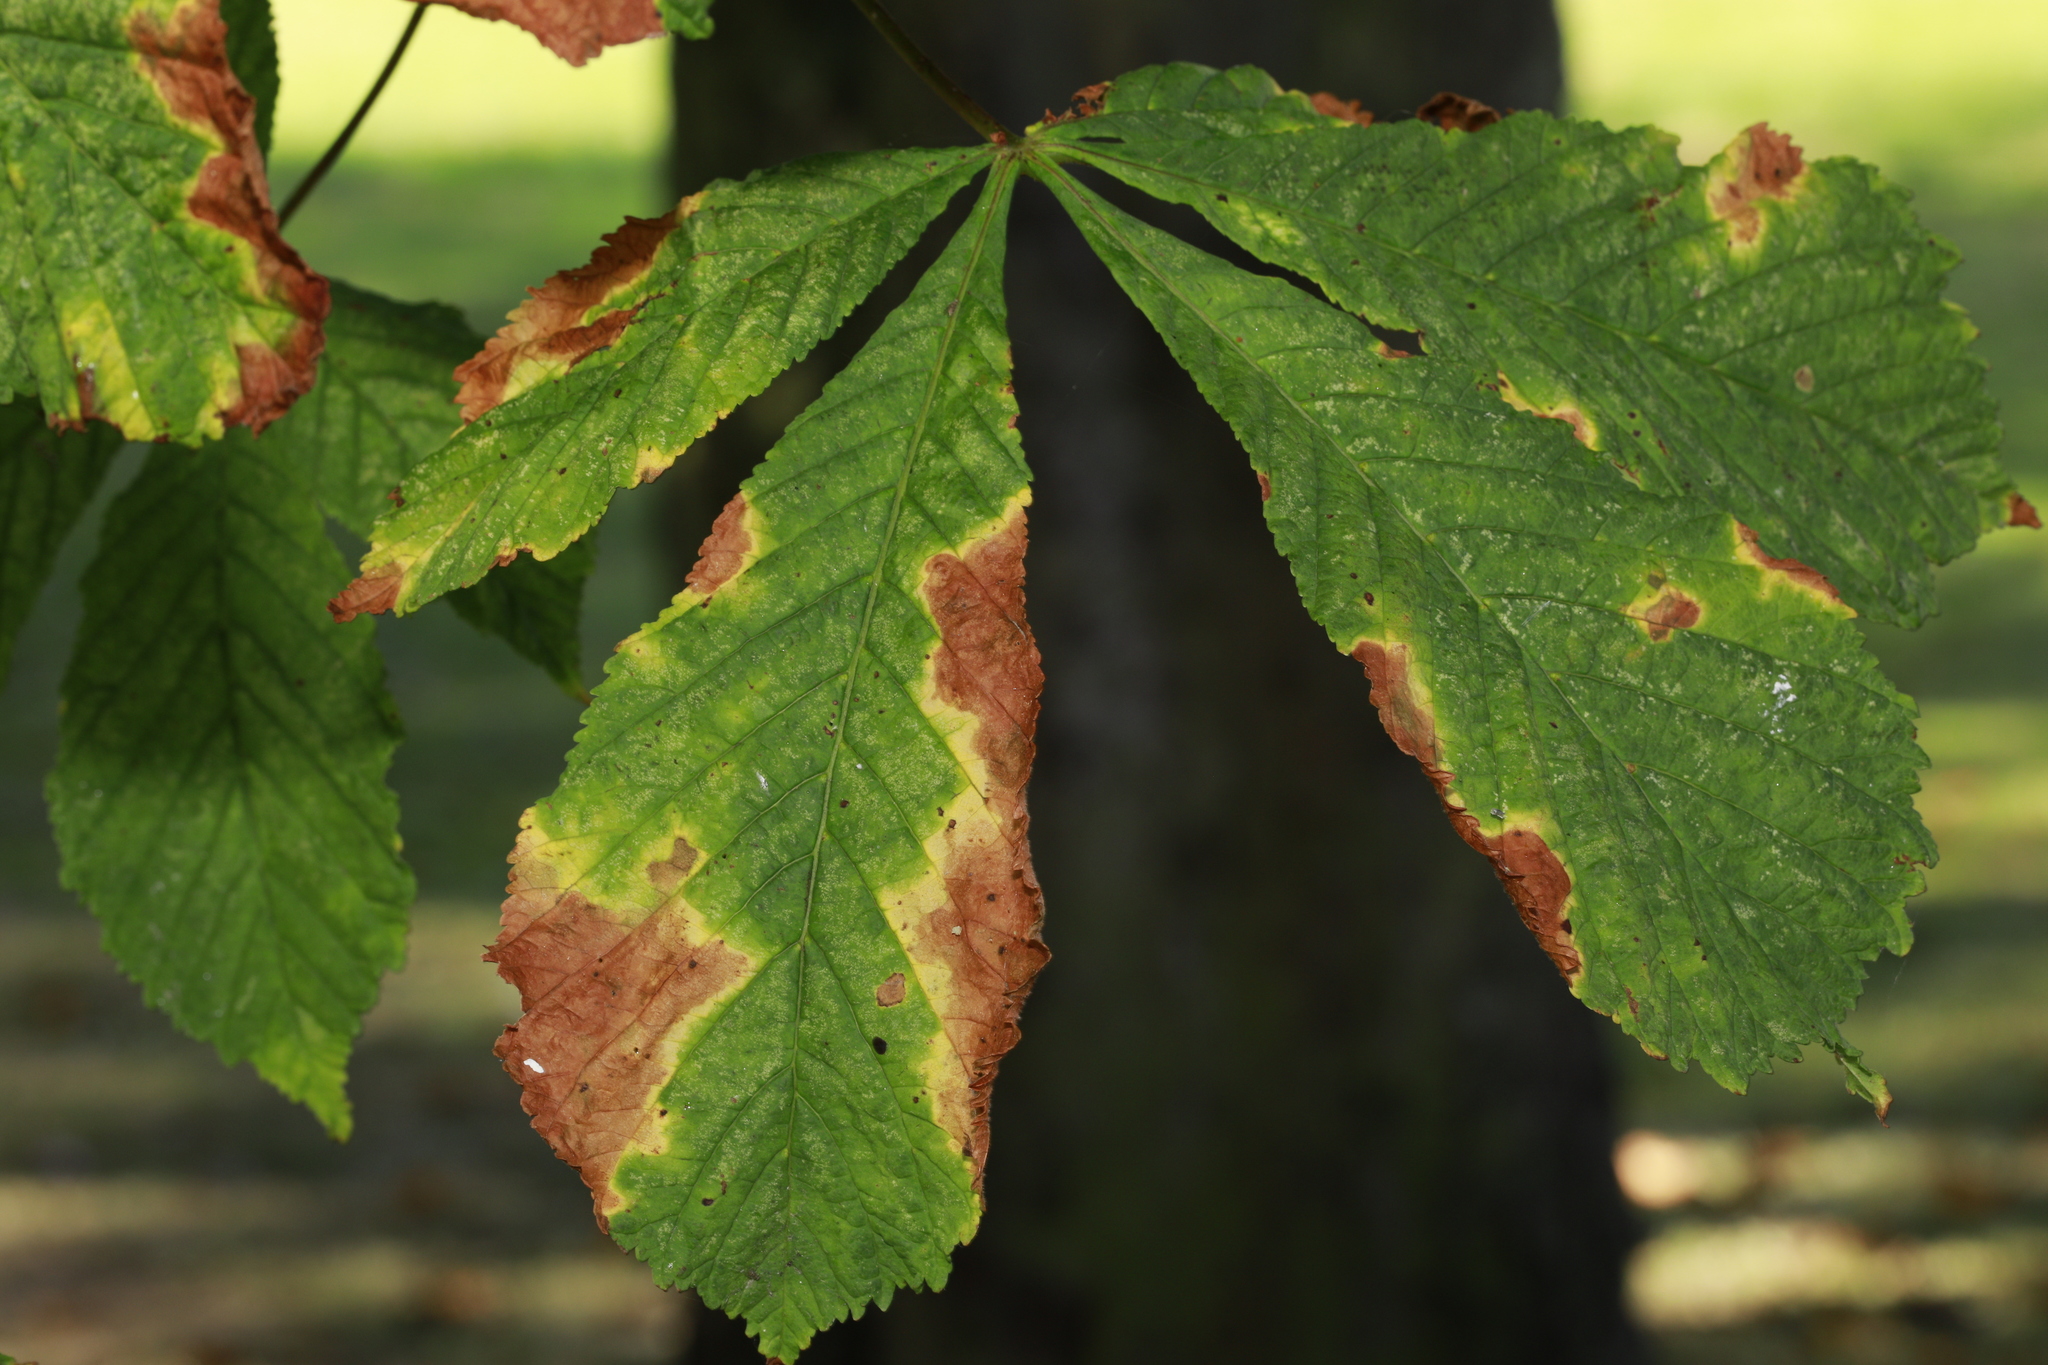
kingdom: Fungi
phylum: Ascomycota
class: Dothideomycetes
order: Botryosphaeriales
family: Phyllostictaceae
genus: Phyllosticta
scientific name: Phyllosticta paviae
